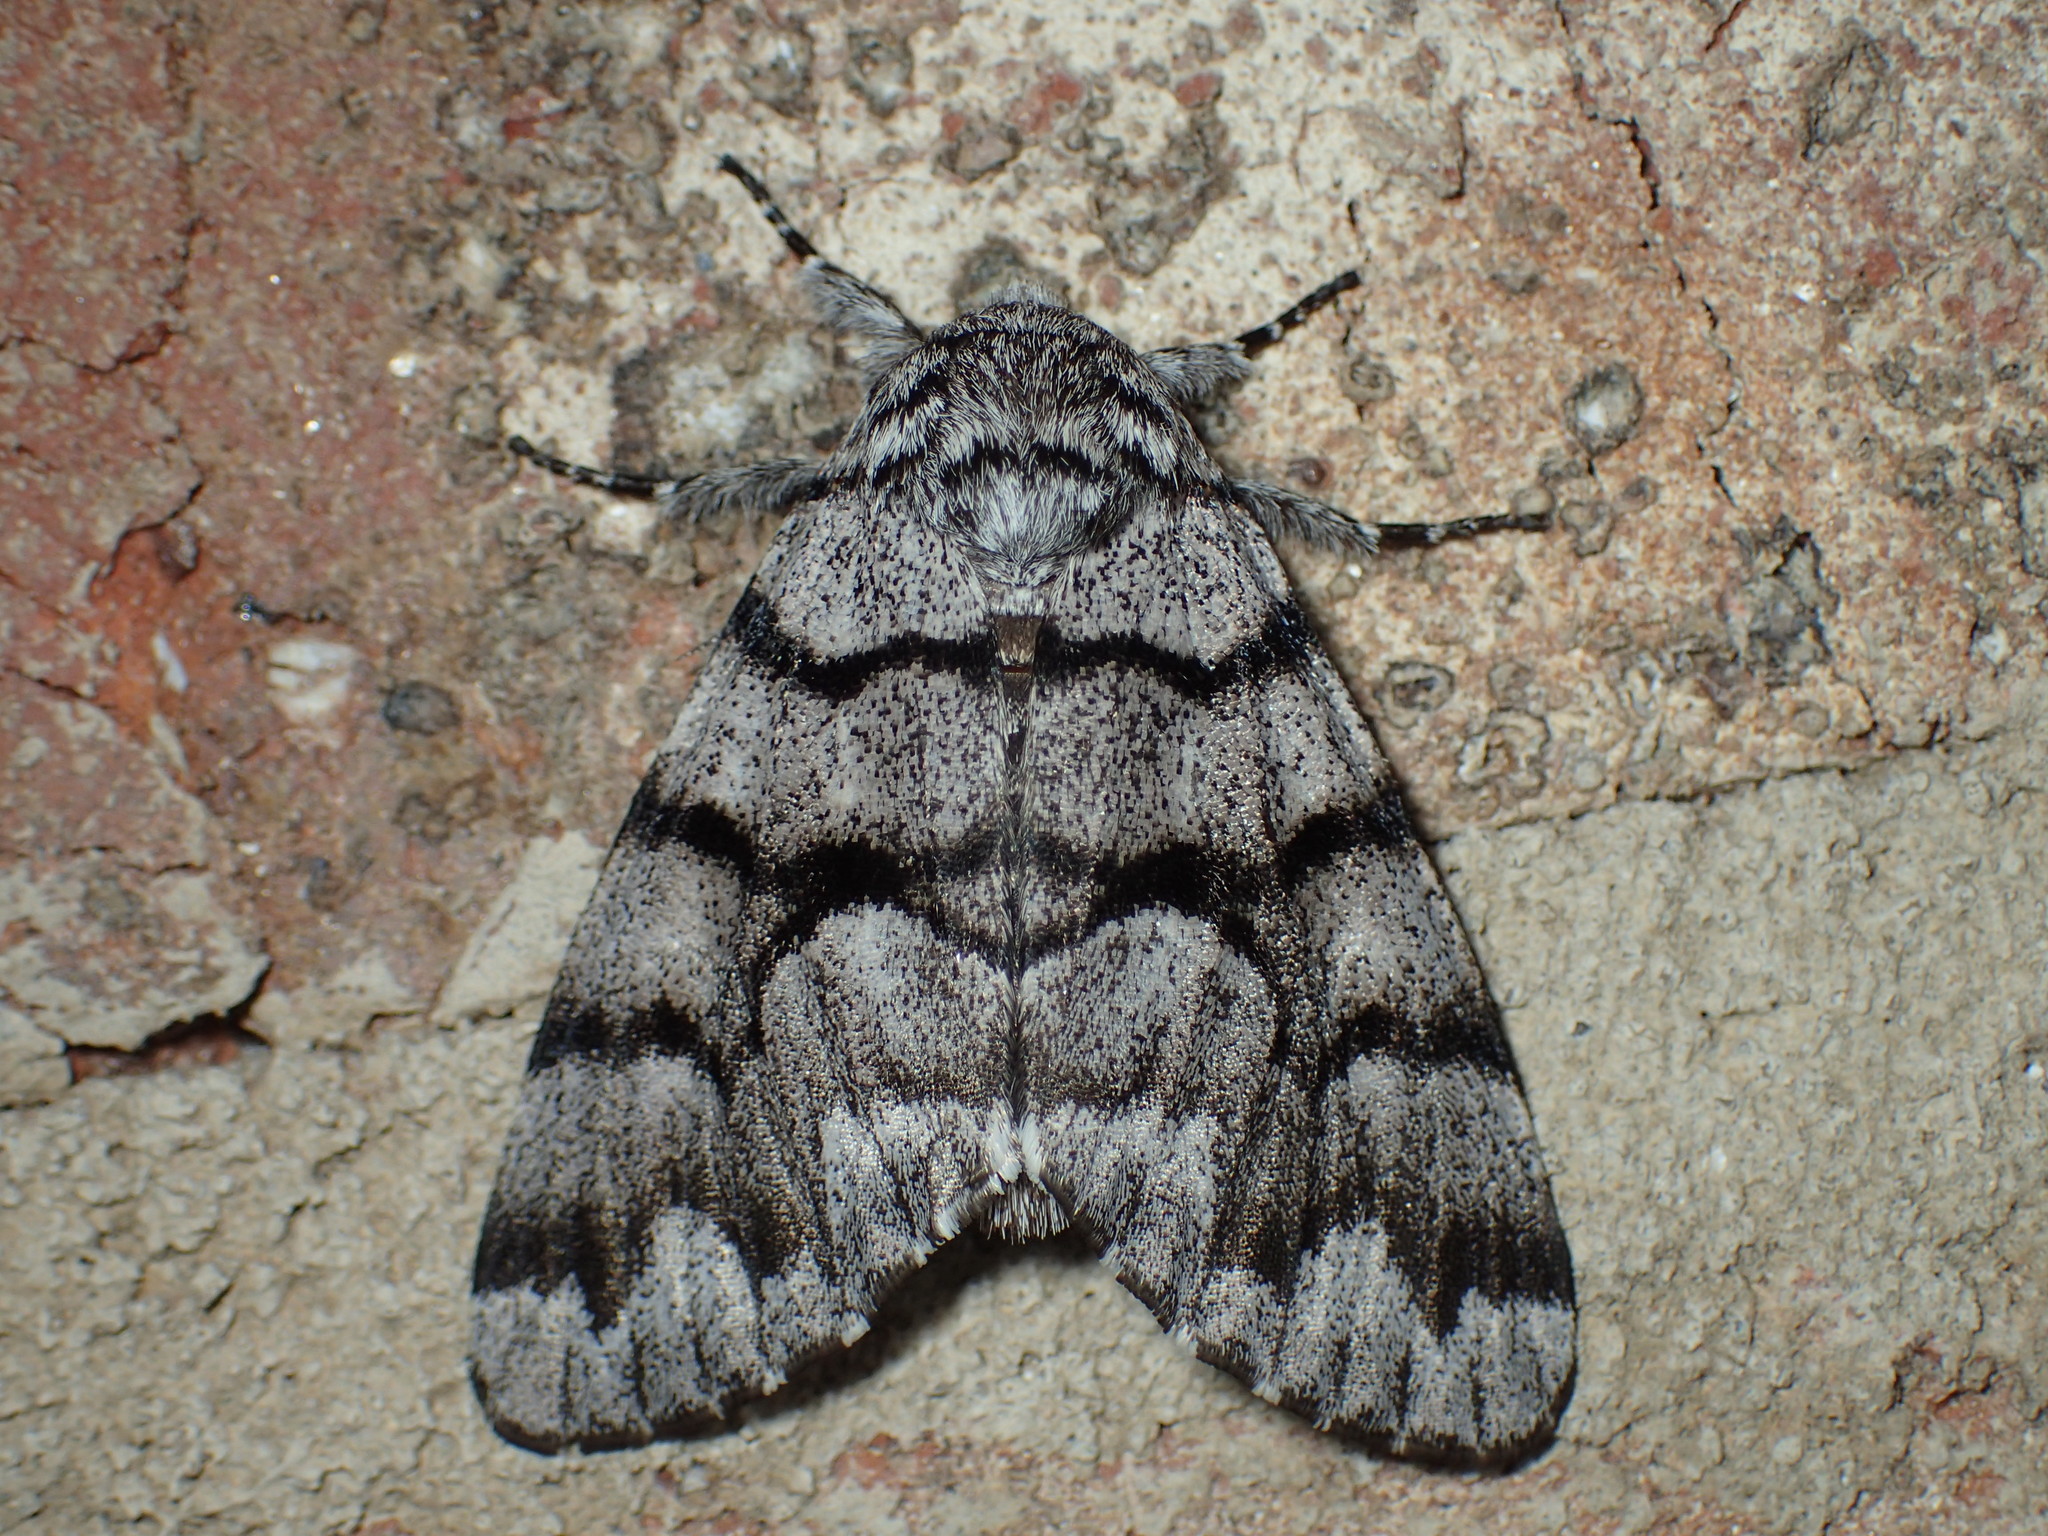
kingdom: Animalia
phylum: Arthropoda
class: Insecta
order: Lepidoptera
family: Noctuidae
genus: Panthea
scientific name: Panthea furcilla
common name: Eastern panthea moth
